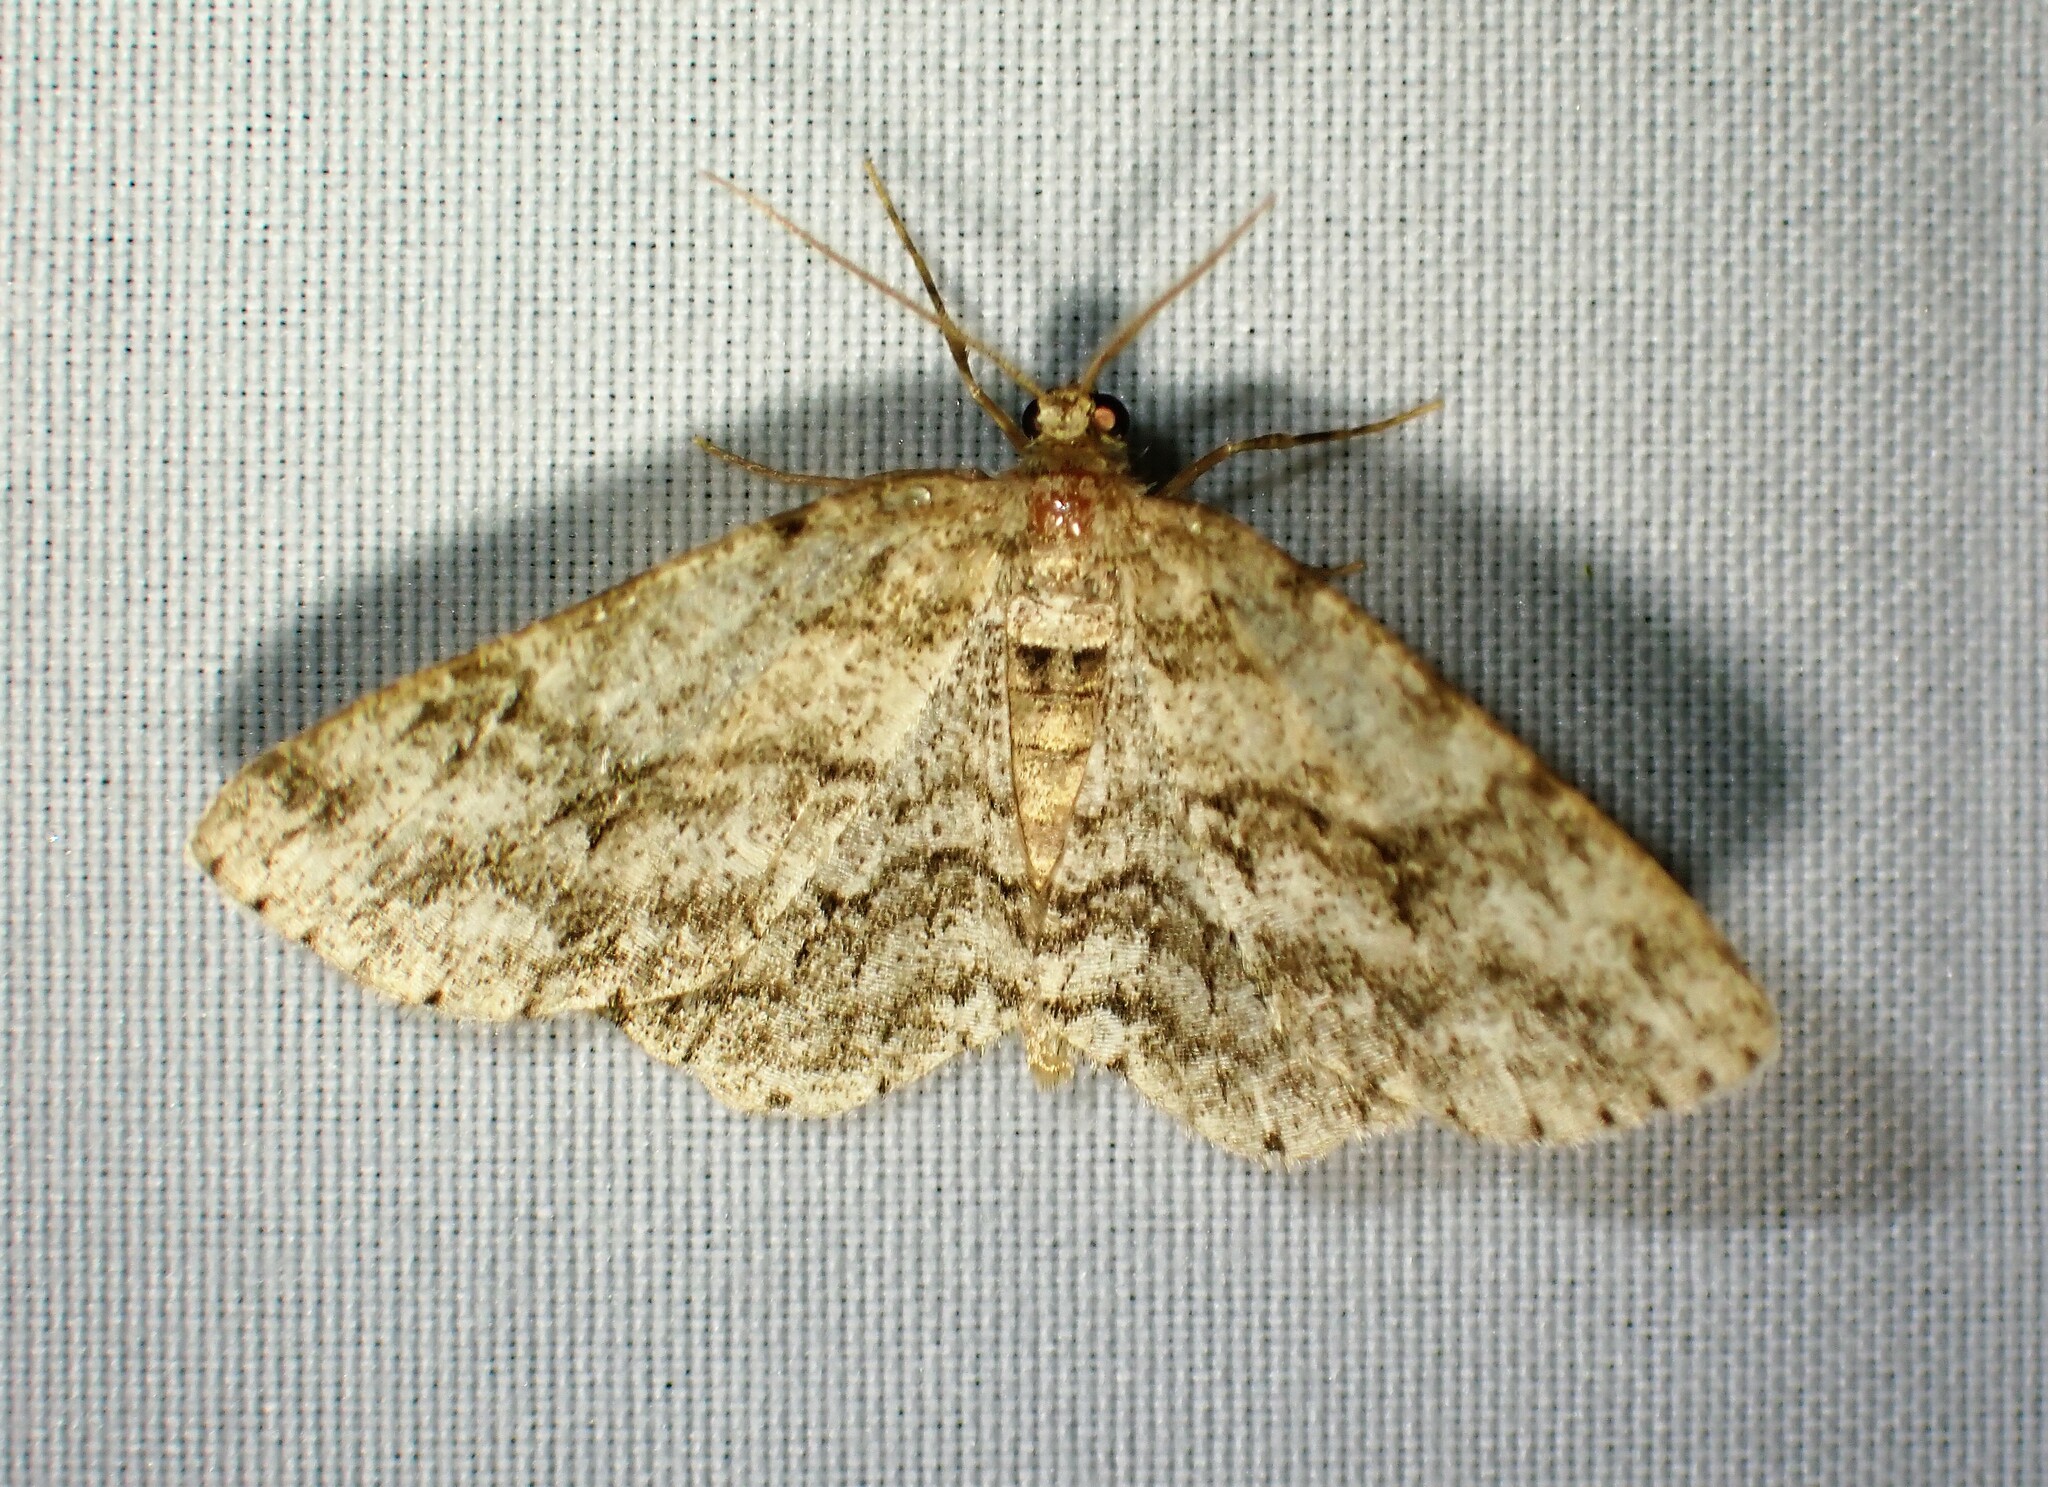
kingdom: Animalia
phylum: Arthropoda
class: Insecta
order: Lepidoptera
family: Geometridae
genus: Ectropis
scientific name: Ectropis crepuscularia
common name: Engrailed
